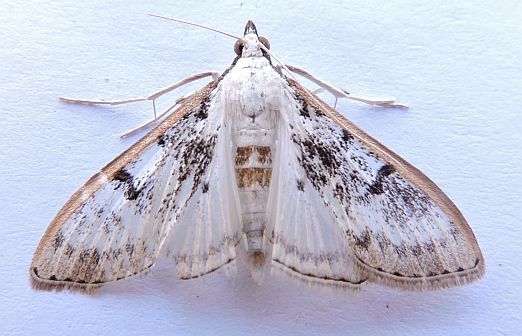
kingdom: Animalia
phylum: Arthropoda
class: Insecta
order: Lepidoptera
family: Crambidae
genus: Palpita
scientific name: Palpita gracilalis
